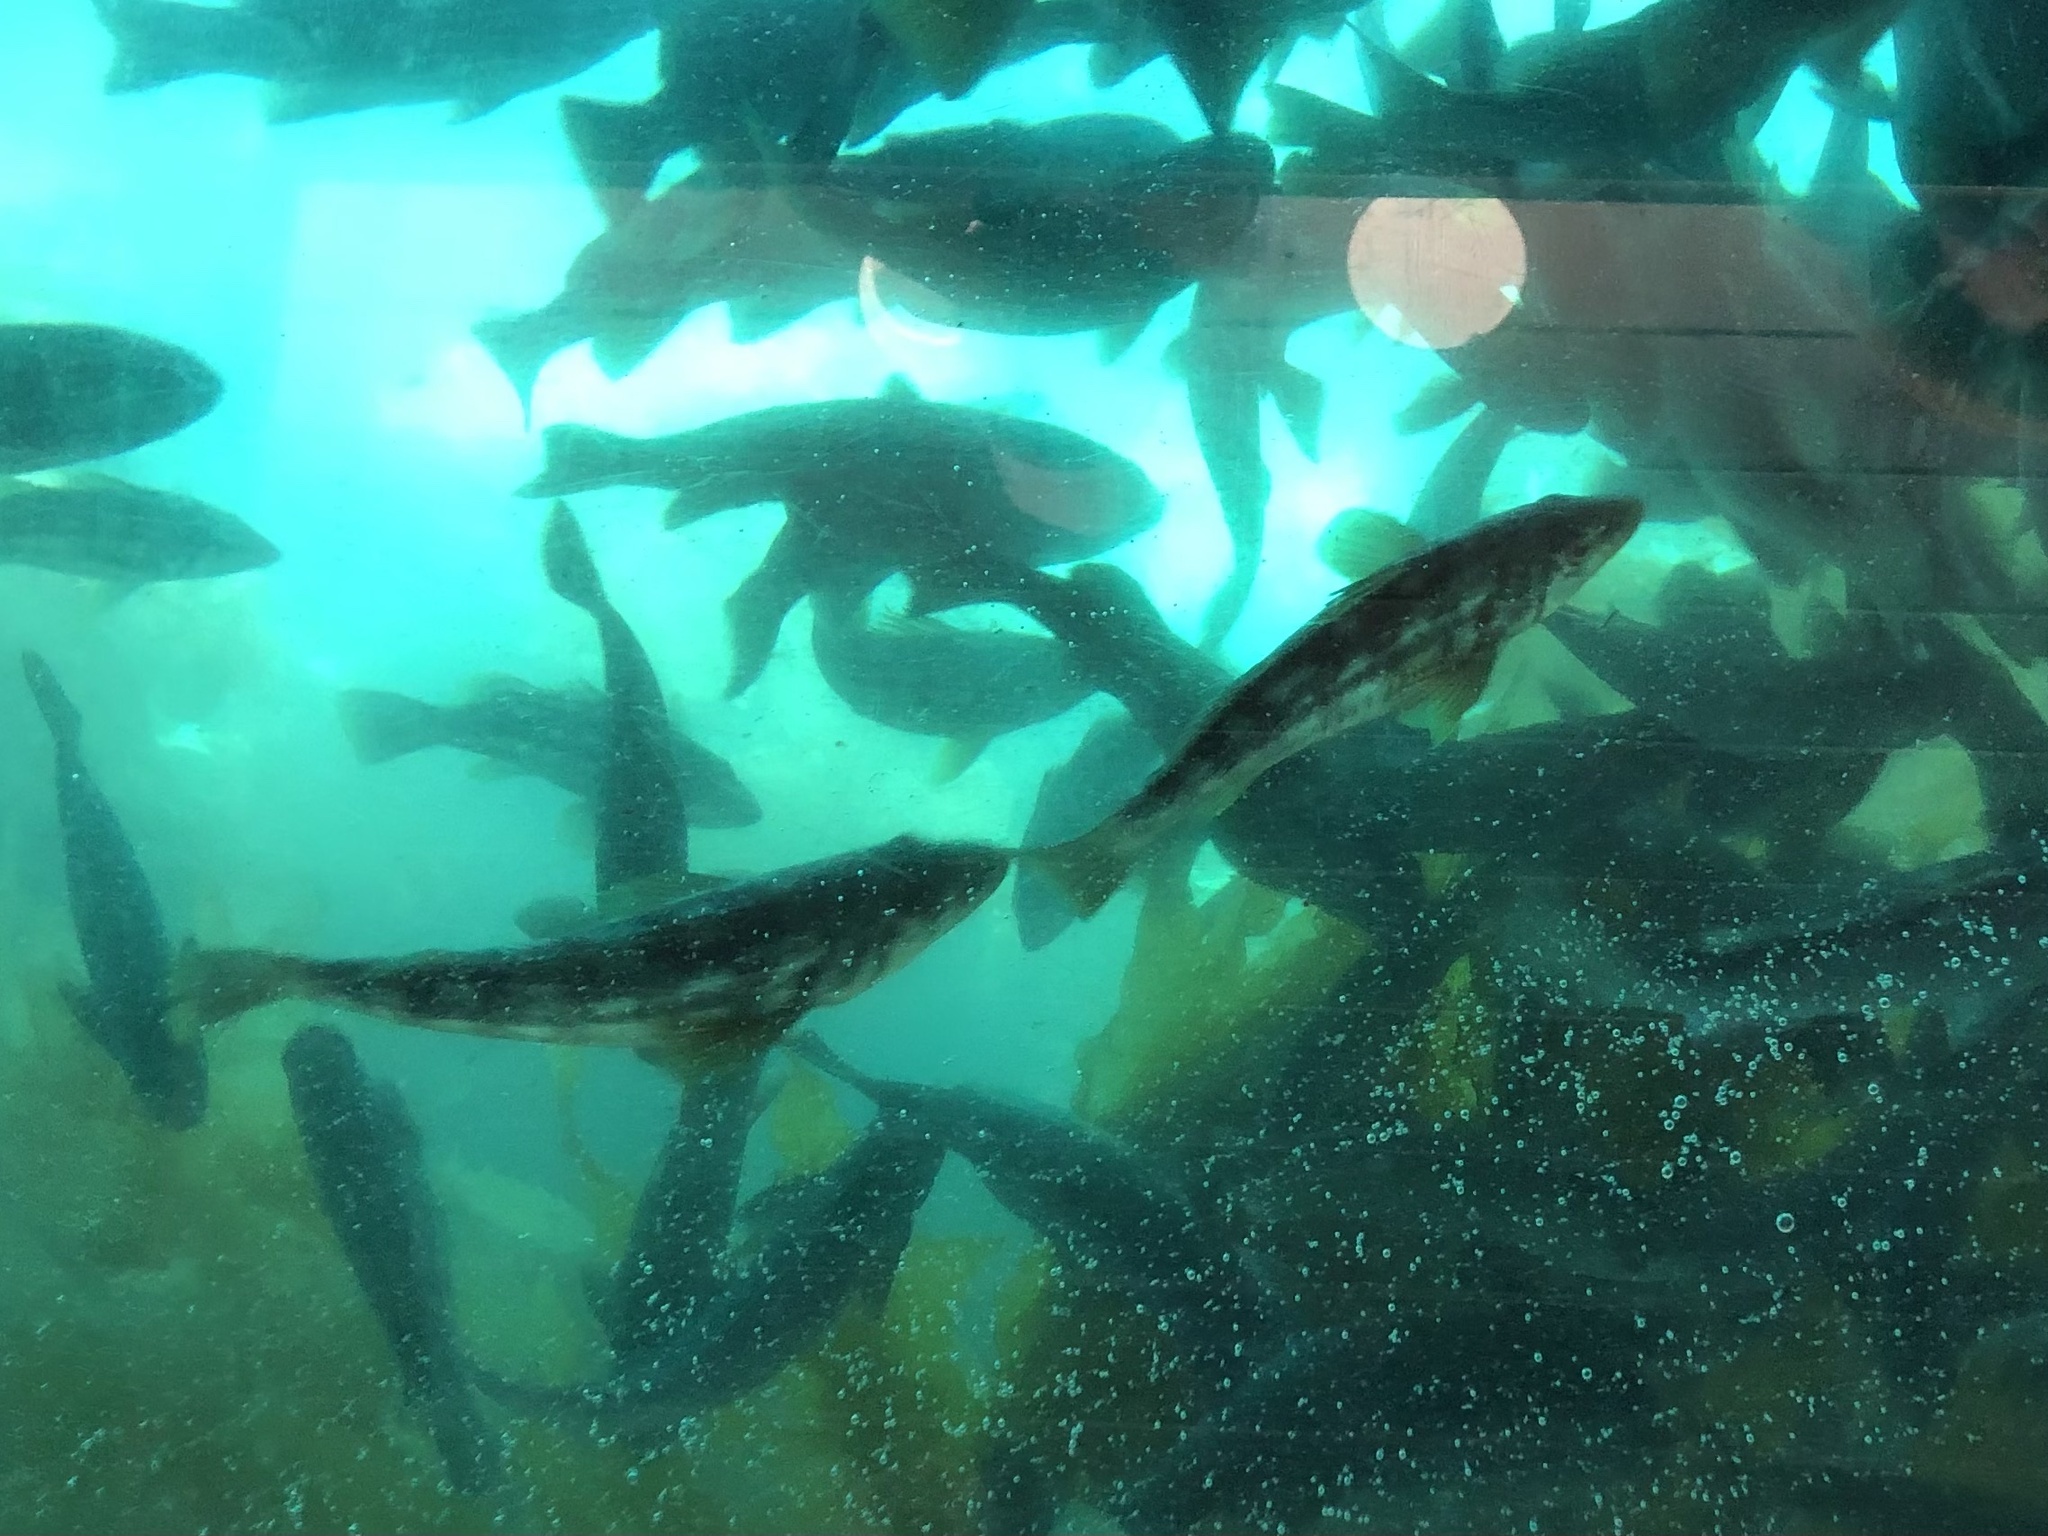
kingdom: Animalia
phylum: Chordata
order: Perciformes
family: Serranidae
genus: Paralabrax
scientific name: Paralabrax clathratus
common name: Kelp bass
